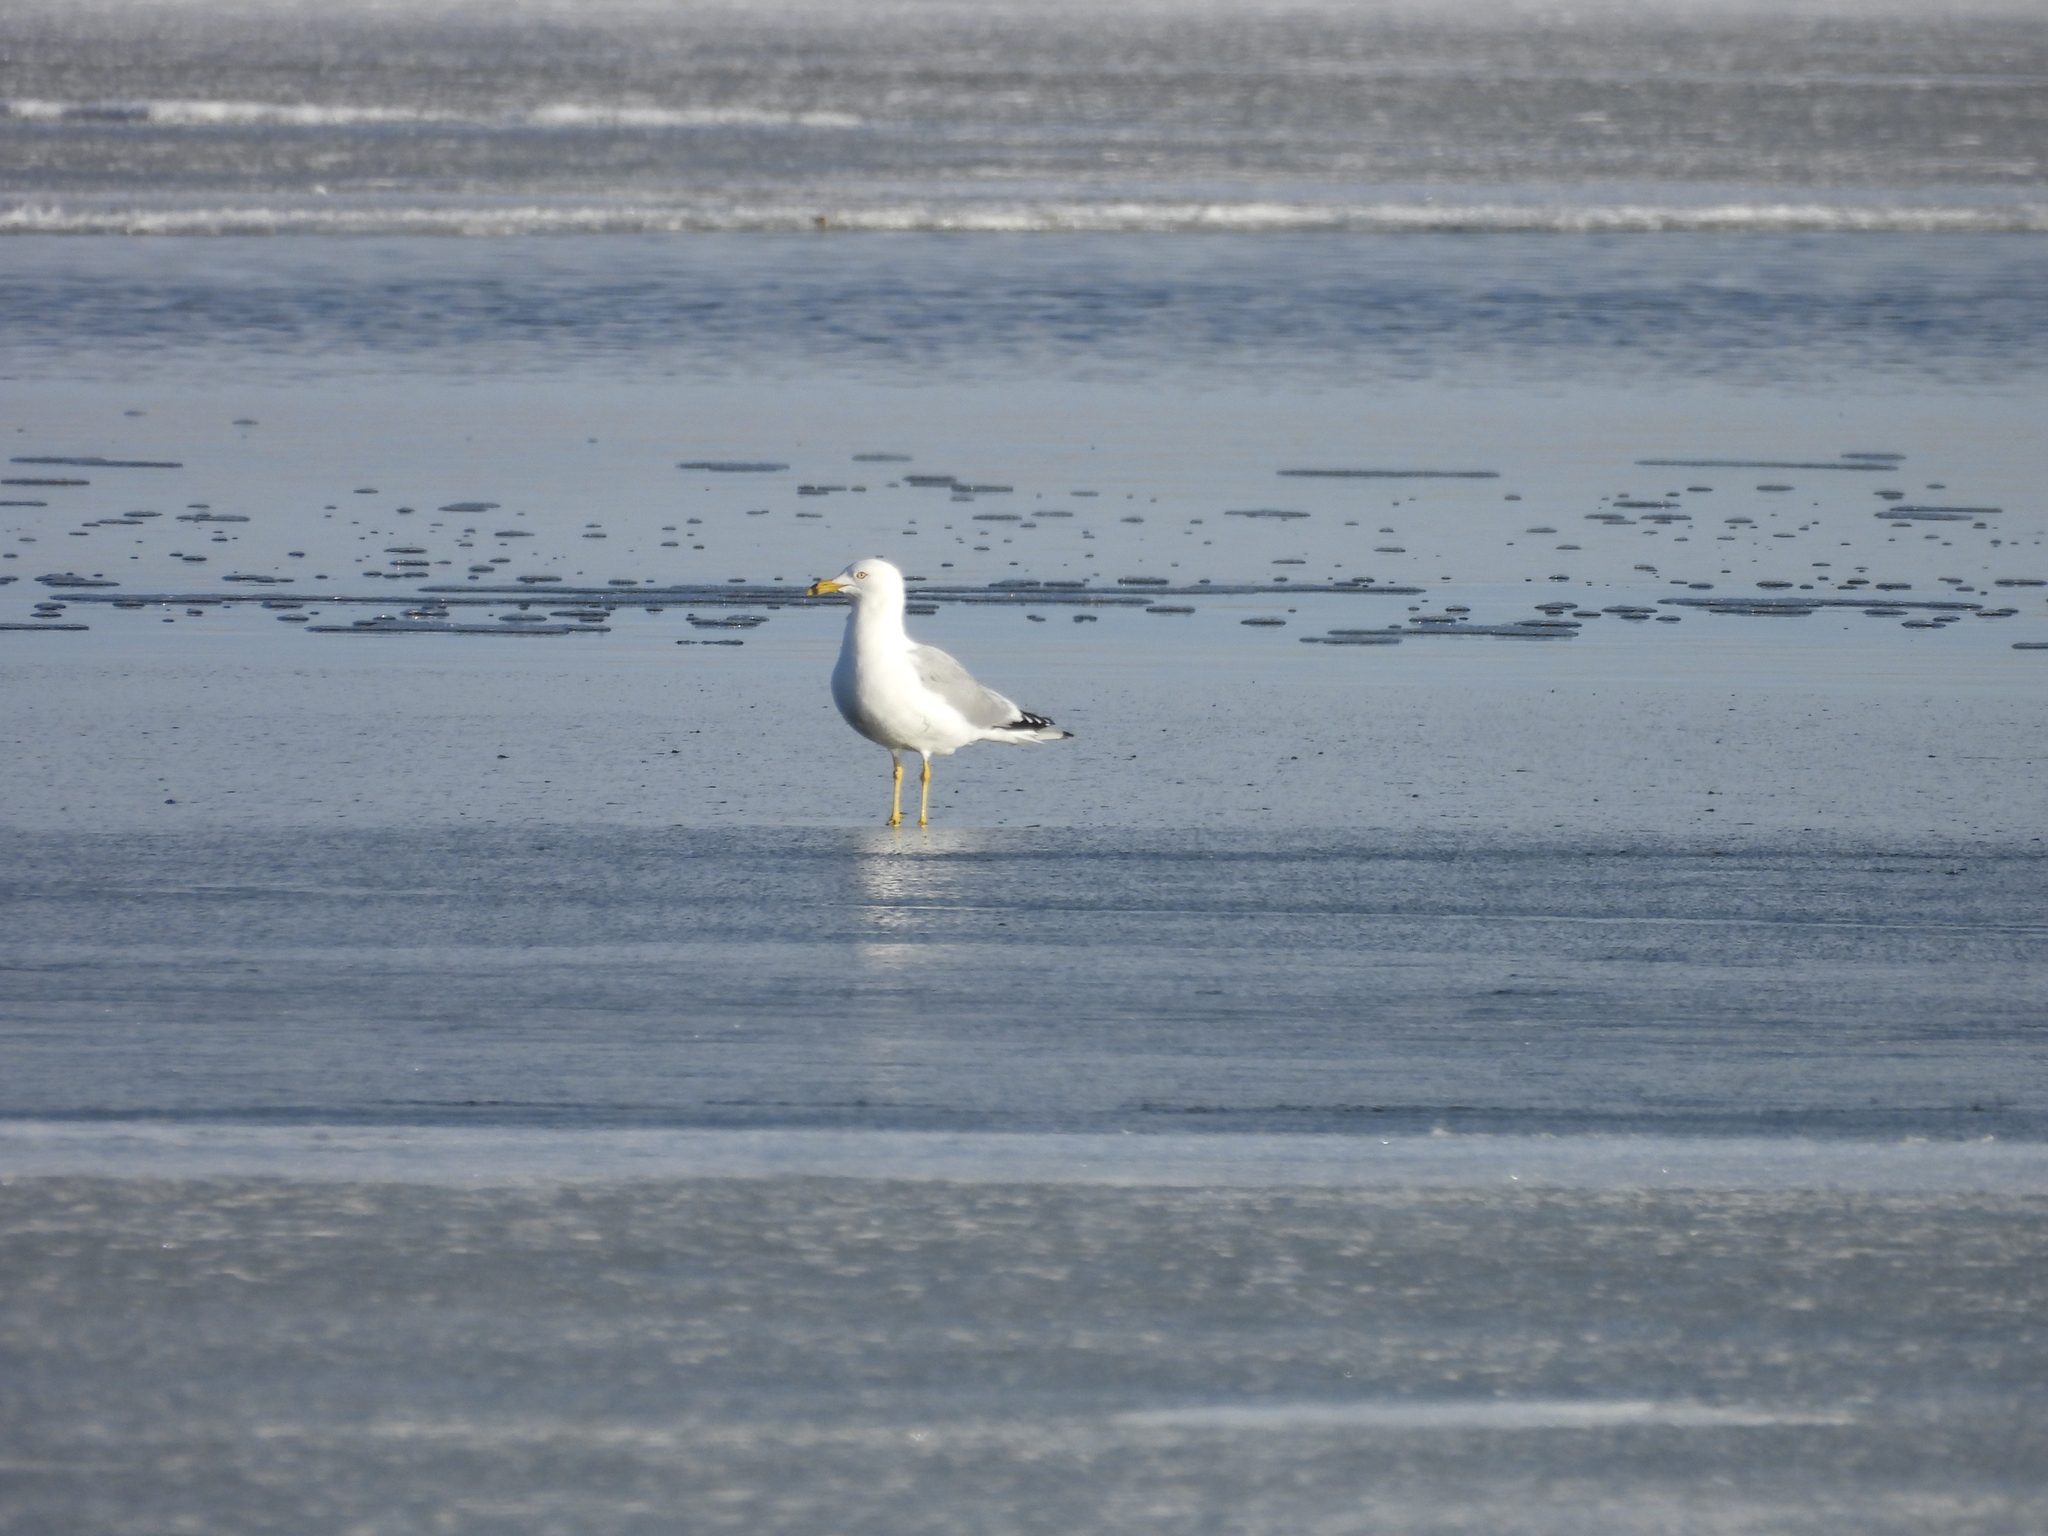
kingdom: Animalia
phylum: Chordata
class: Aves
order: Charadriiformes
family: Laridae
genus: Larus
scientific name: Larus delawarensis
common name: Ring-billed gull
